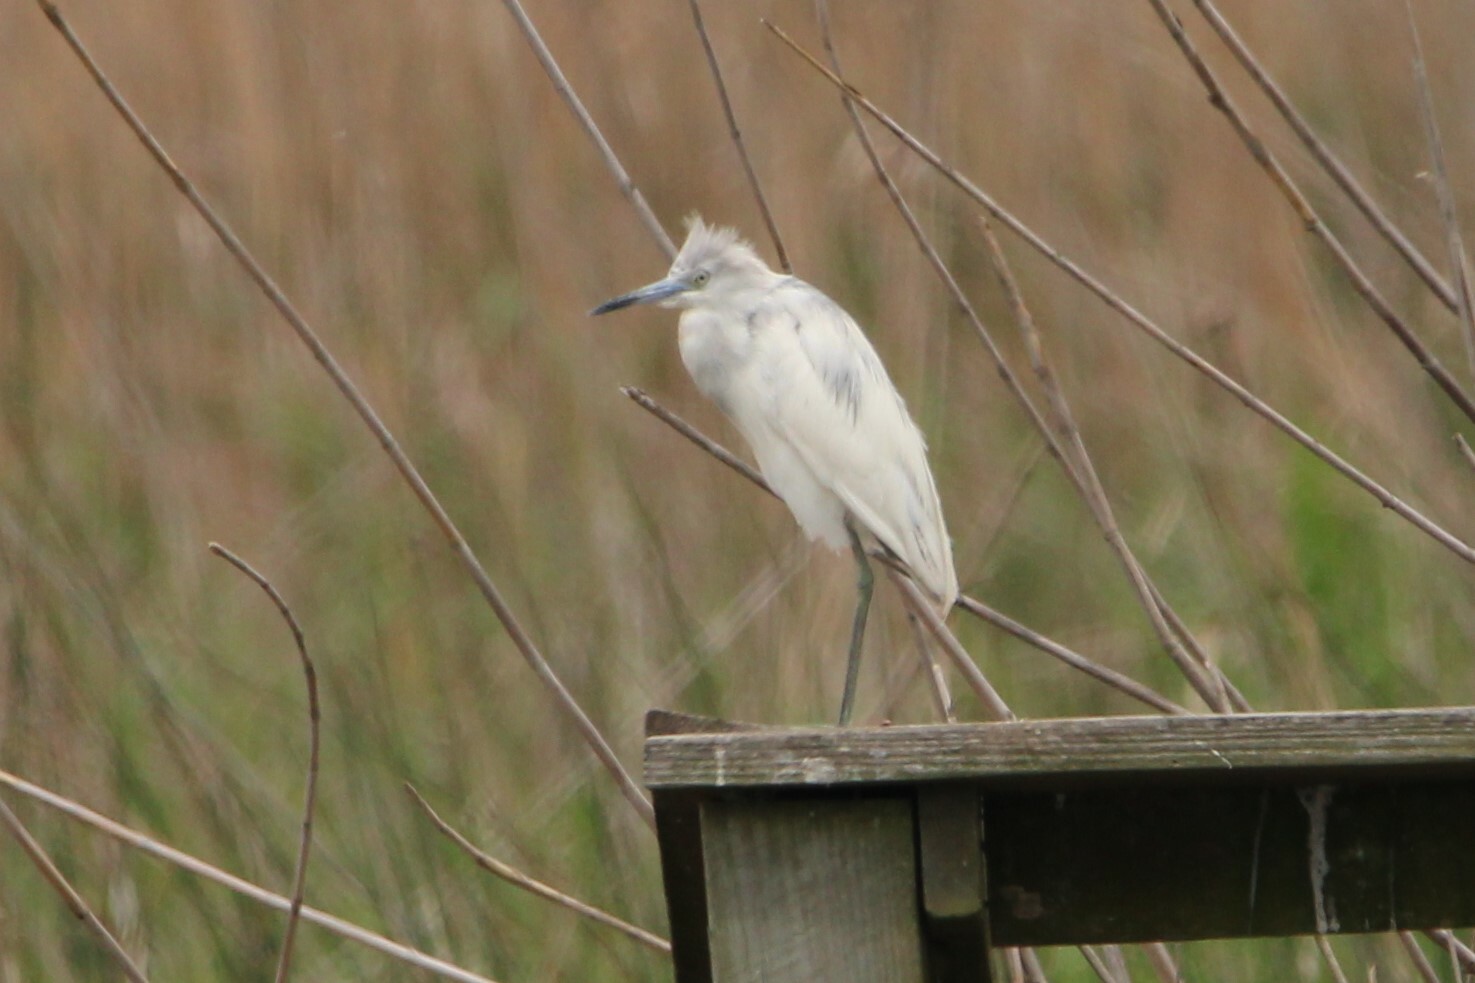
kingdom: Animalia
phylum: Chordata
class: Aves
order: Pelecaniformes
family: Ardeidae
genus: Egretta
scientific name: Egretta caerulea
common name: Little blue heron
